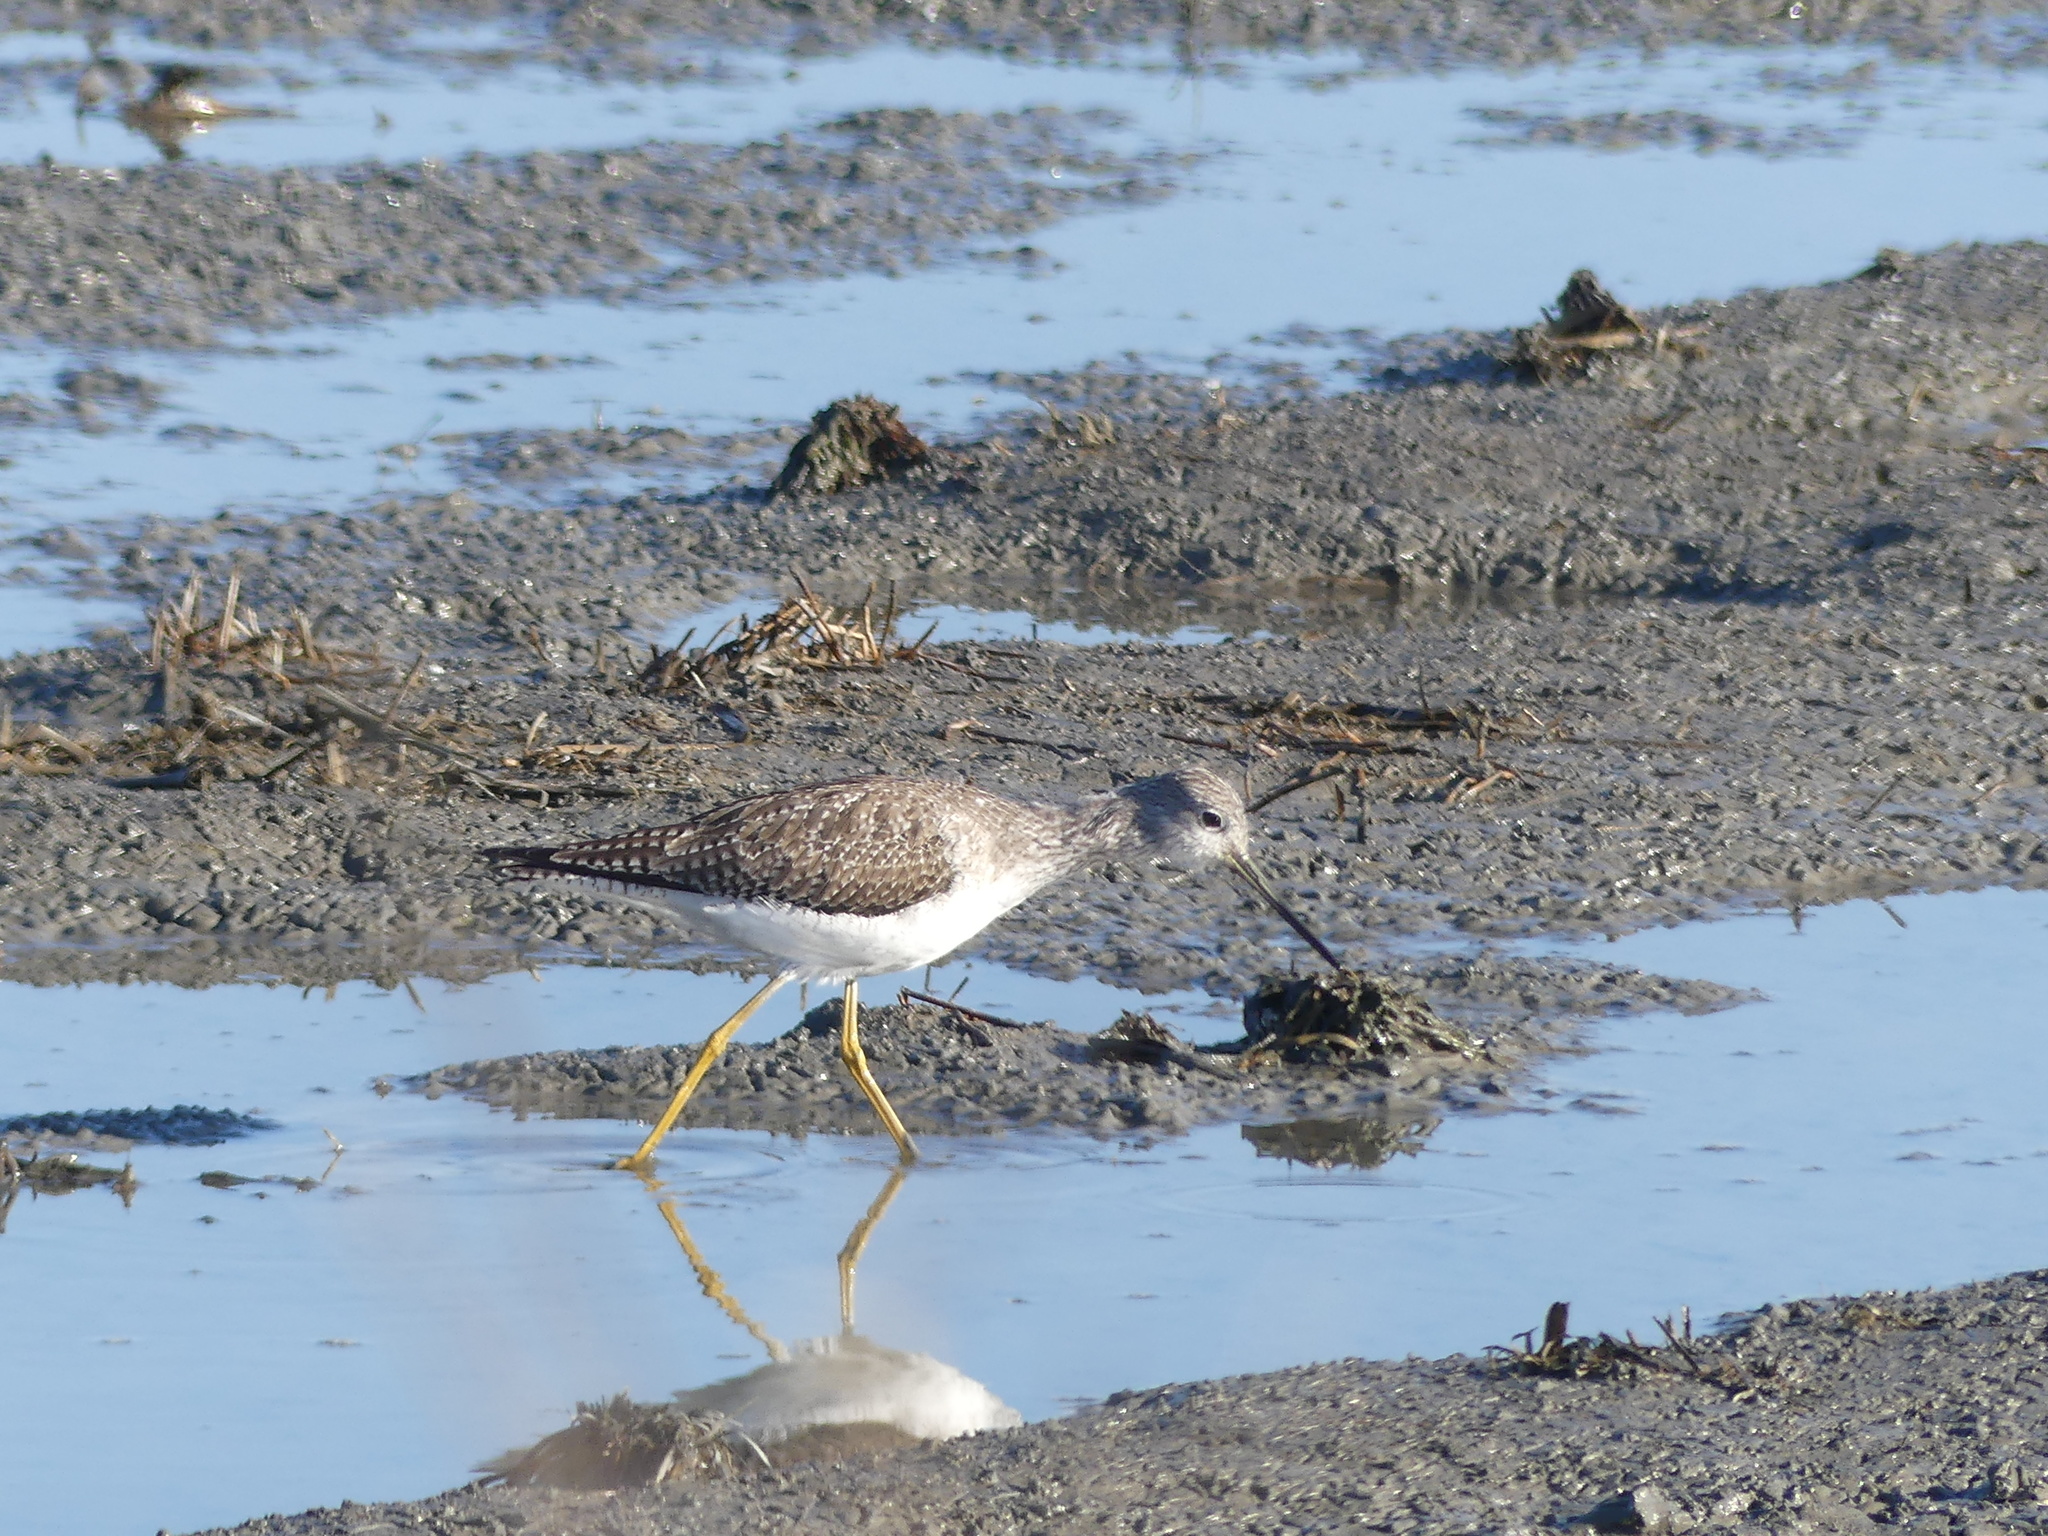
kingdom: Animalia
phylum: Chordata
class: Aves
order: Charadriiformes
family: Scolopacidae
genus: Tringa
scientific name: Tringa melanoleuca
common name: Greater yellowlegs
